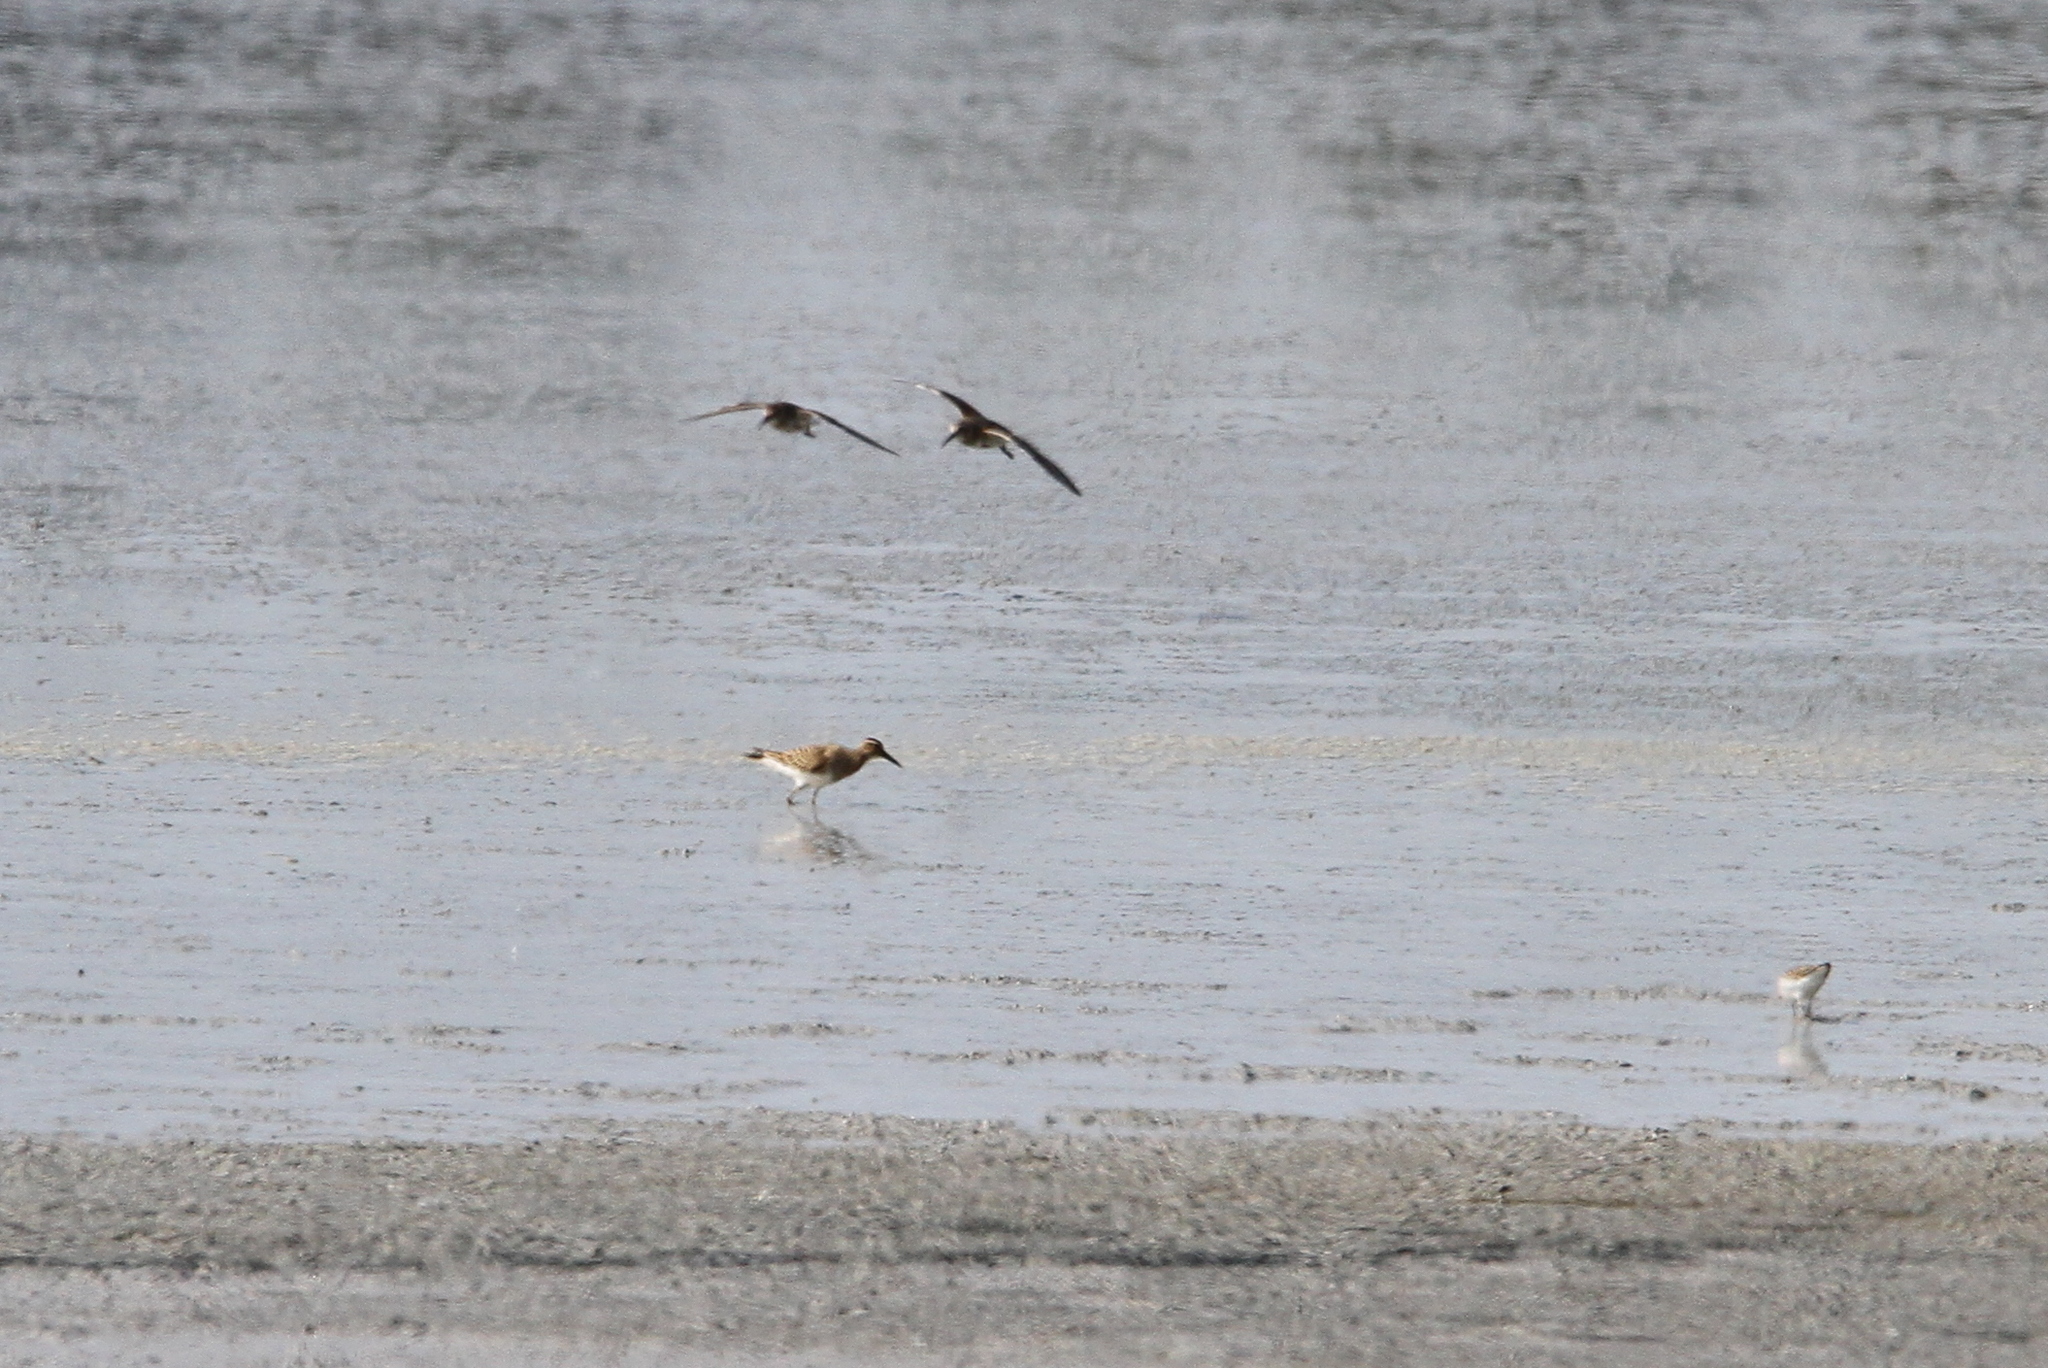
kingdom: Animalia
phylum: Chordata
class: Aves
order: Charadriiformes
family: Scolopacidae
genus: Calidris
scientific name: Calidris melanotos
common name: Pectoral sandpiper
